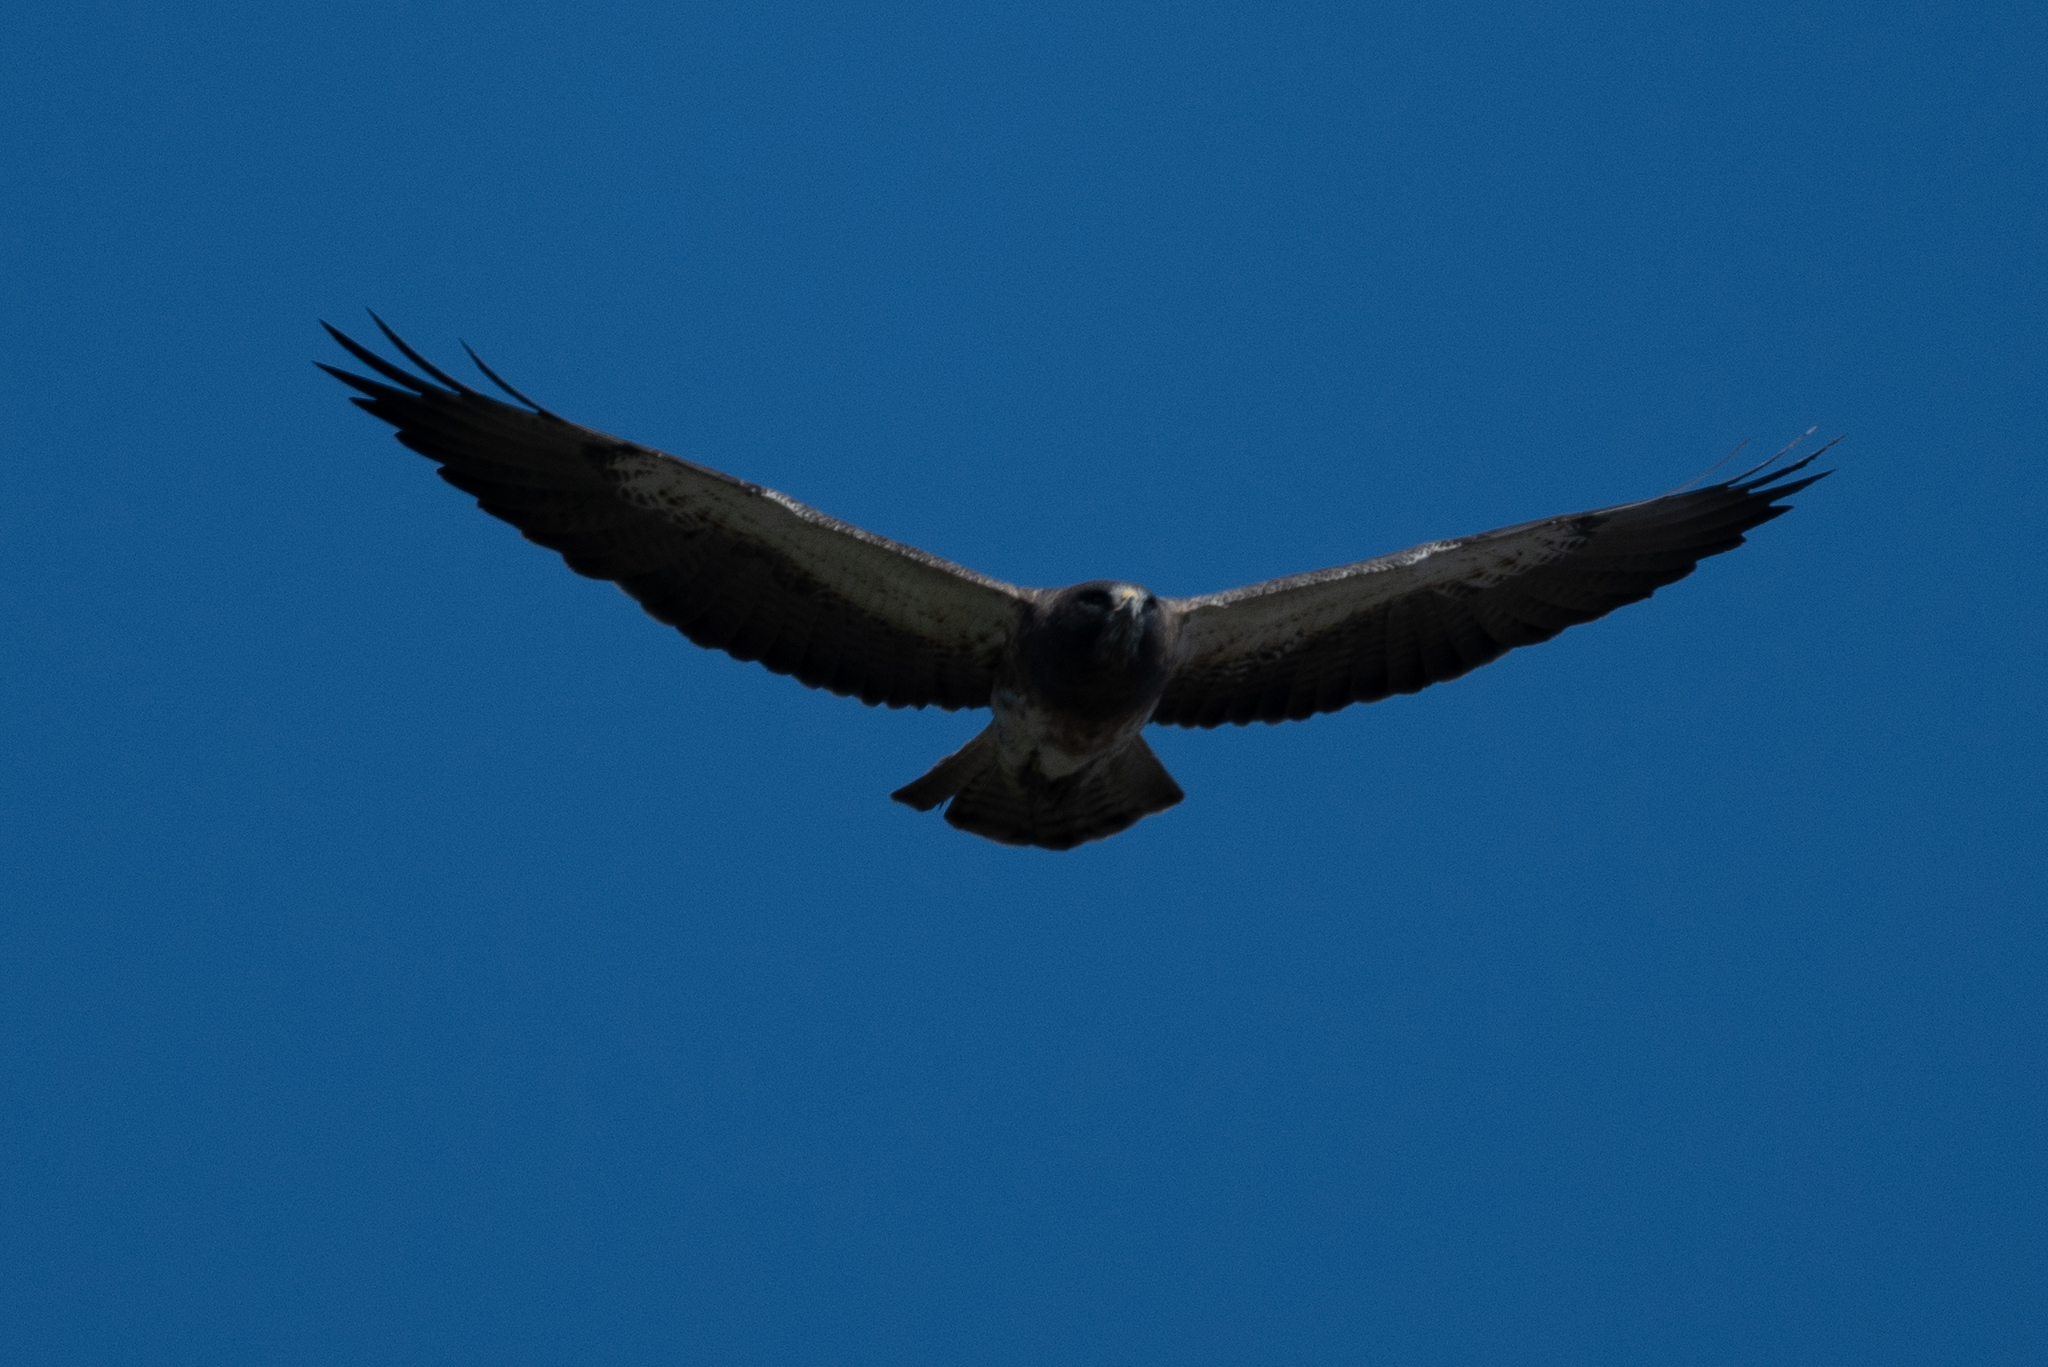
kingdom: Animalia
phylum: Chordata
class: Aves
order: Accipitriformes
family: Accipitridae
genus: Buteo
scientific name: Buteo swainsoni
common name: Swainson's hawk
